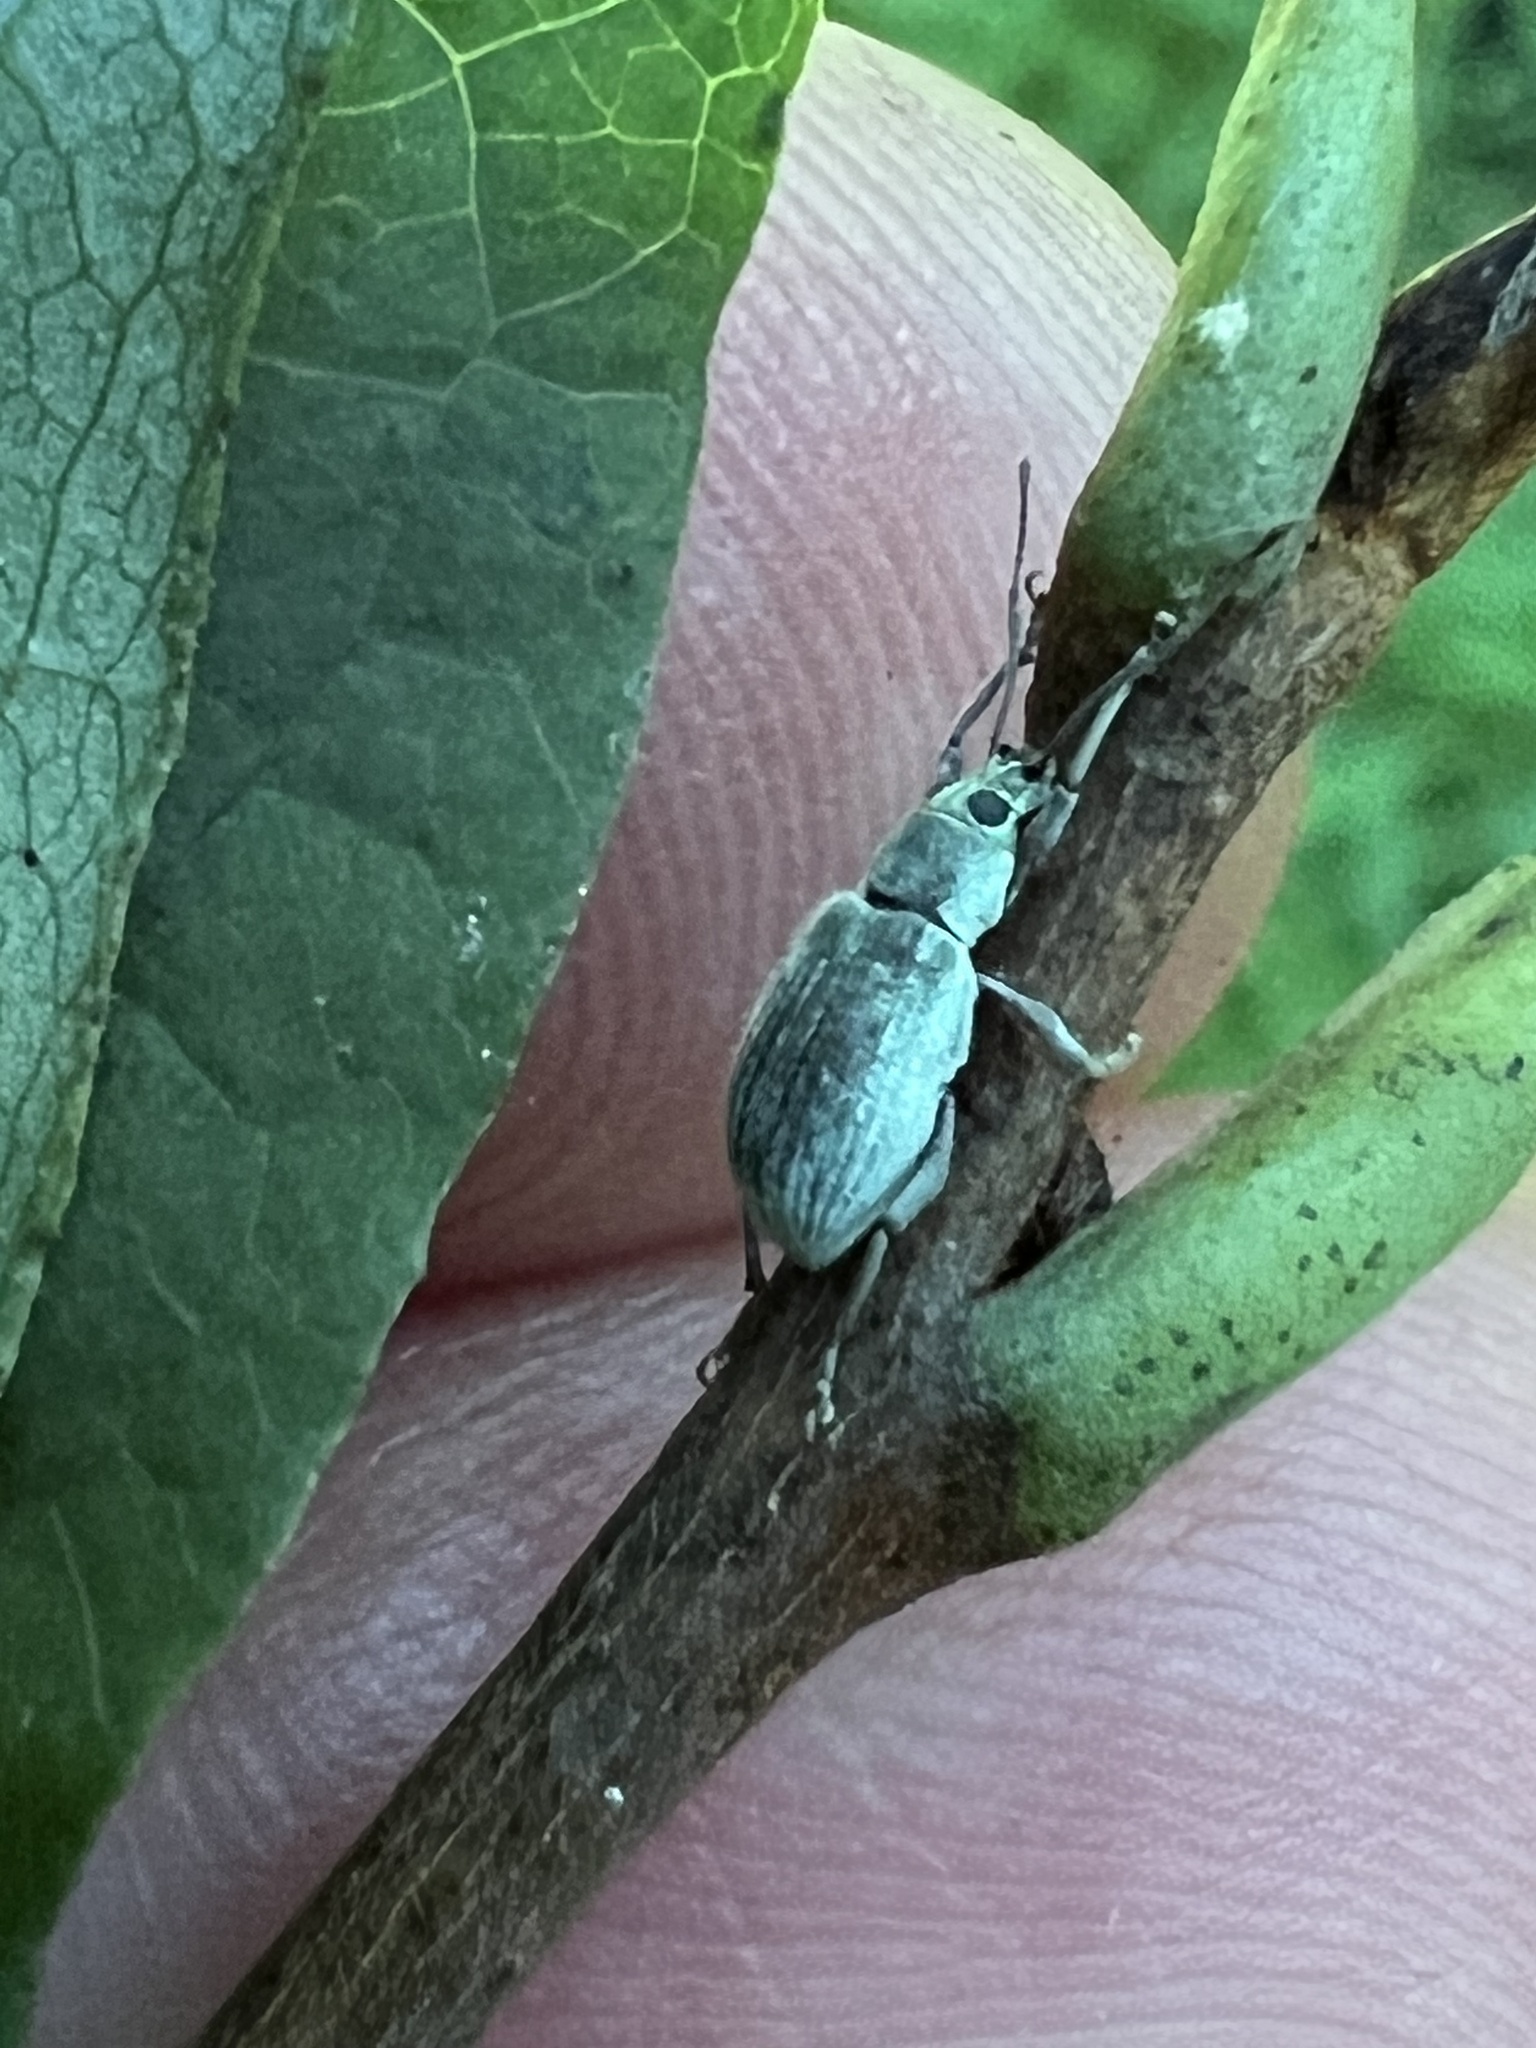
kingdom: Animalia
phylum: Arthropoda
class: Insecta
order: Coleoptera
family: Curculionidae
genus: Cyrtepistomus
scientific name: Cyrtepistomus castaneus
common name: Weevil
